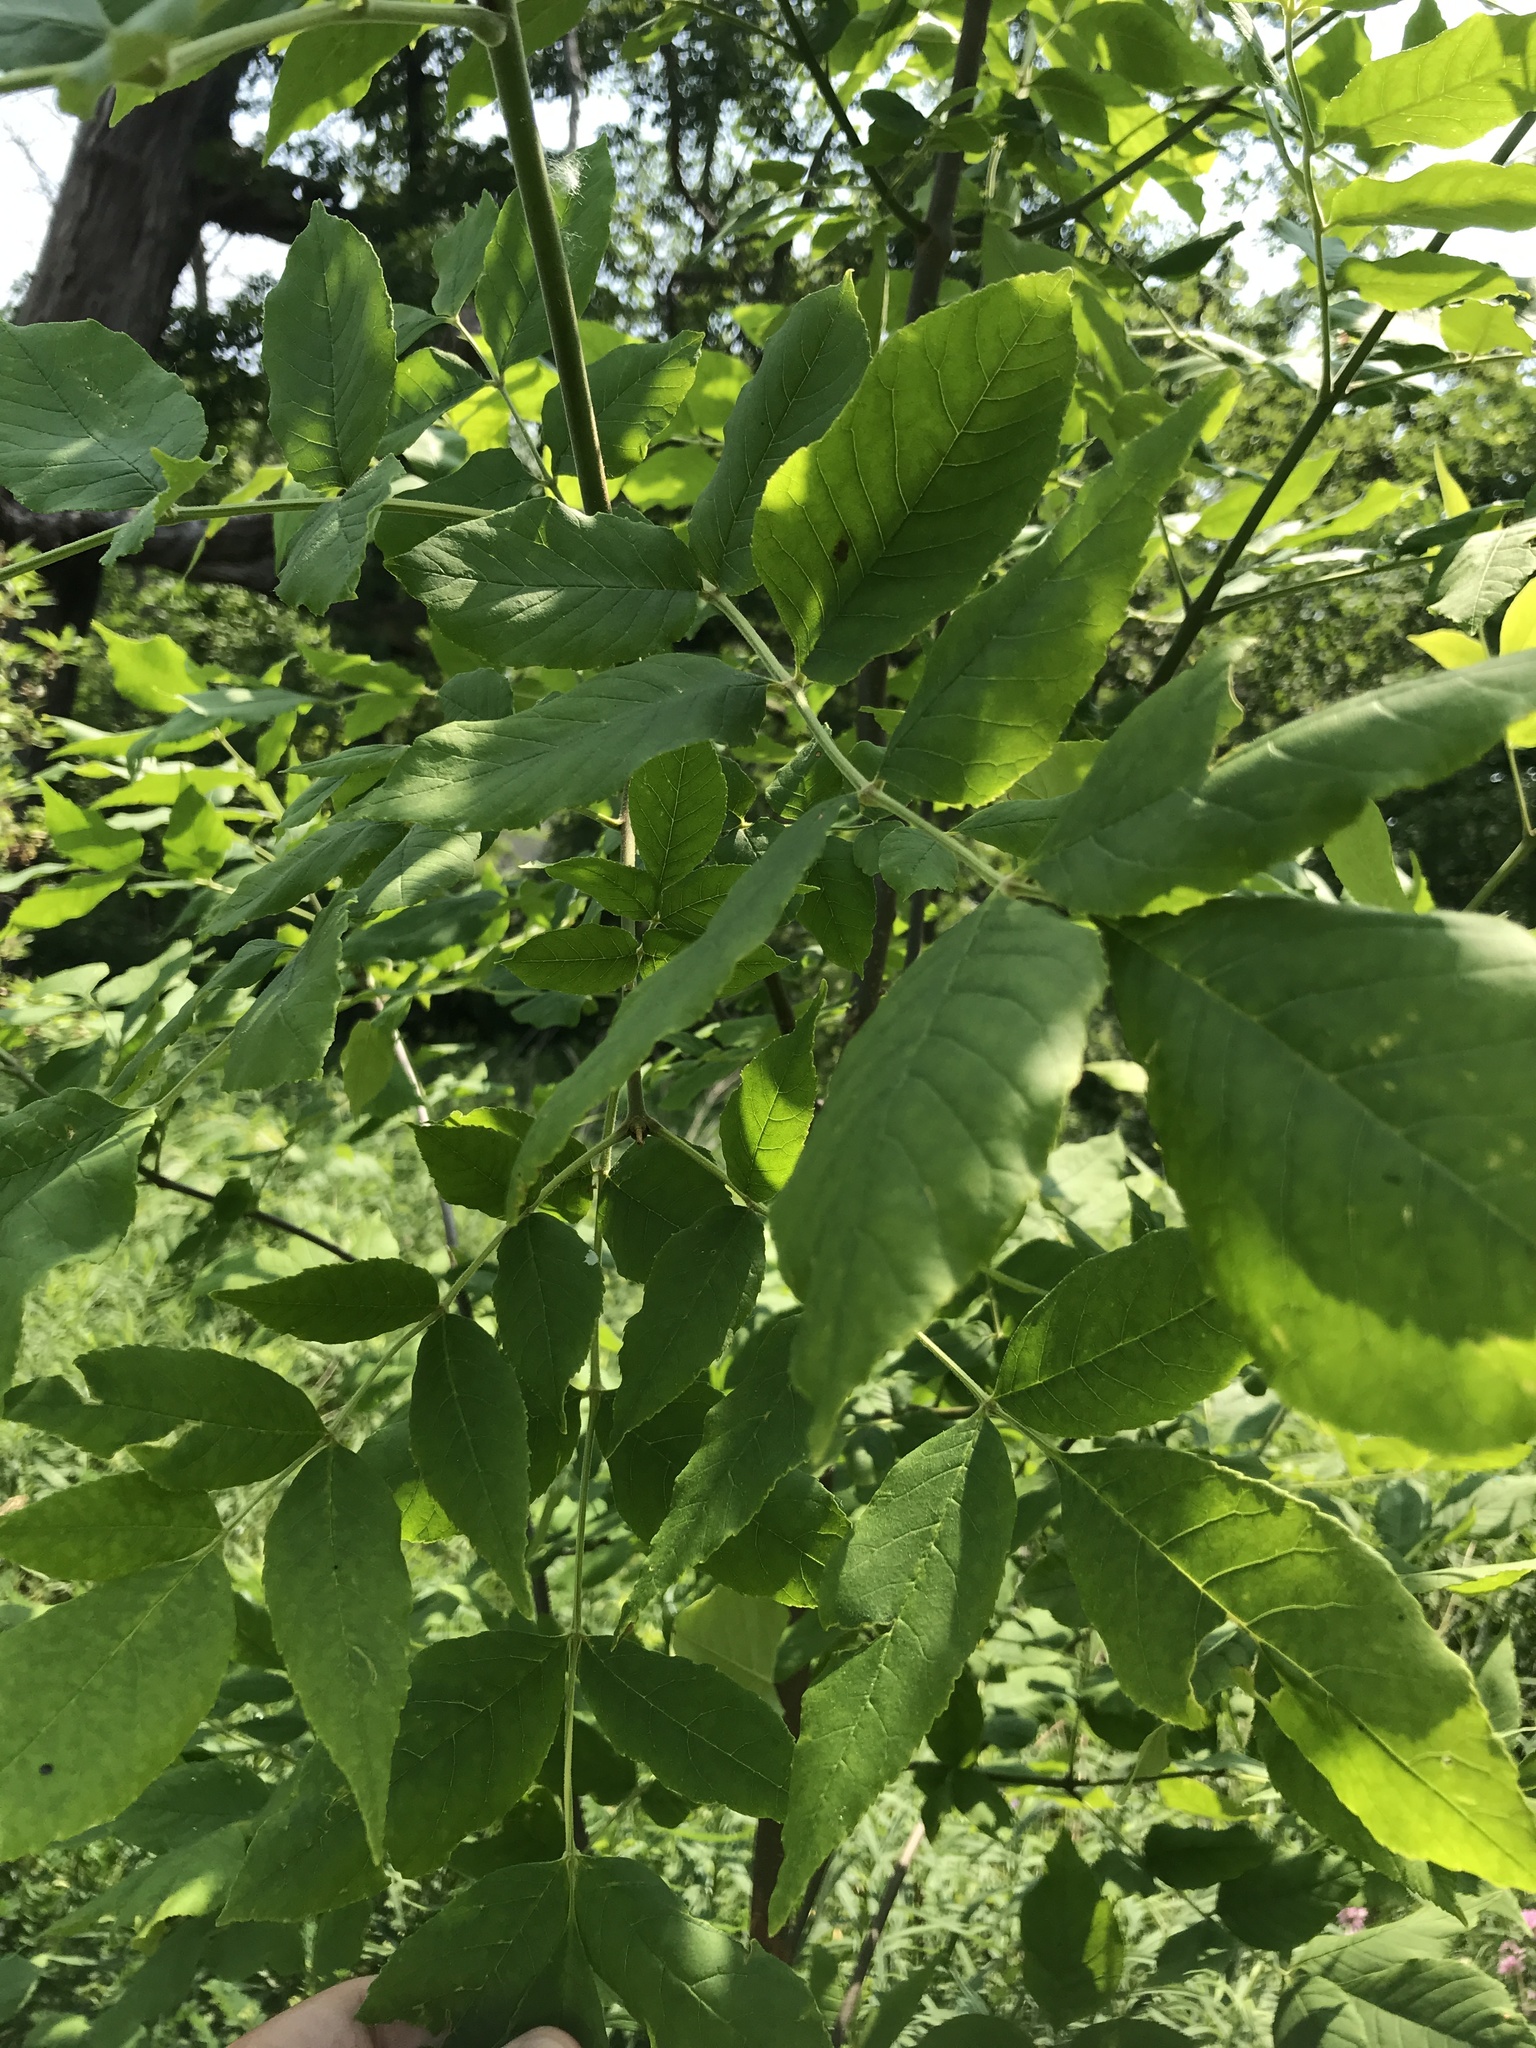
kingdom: Plantae
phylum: Tracheophyta
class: Magnoliopsida
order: Lamiales
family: Oleaceae
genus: Fraxinus
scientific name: Fraxinus pennsylvanica
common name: Green ash
